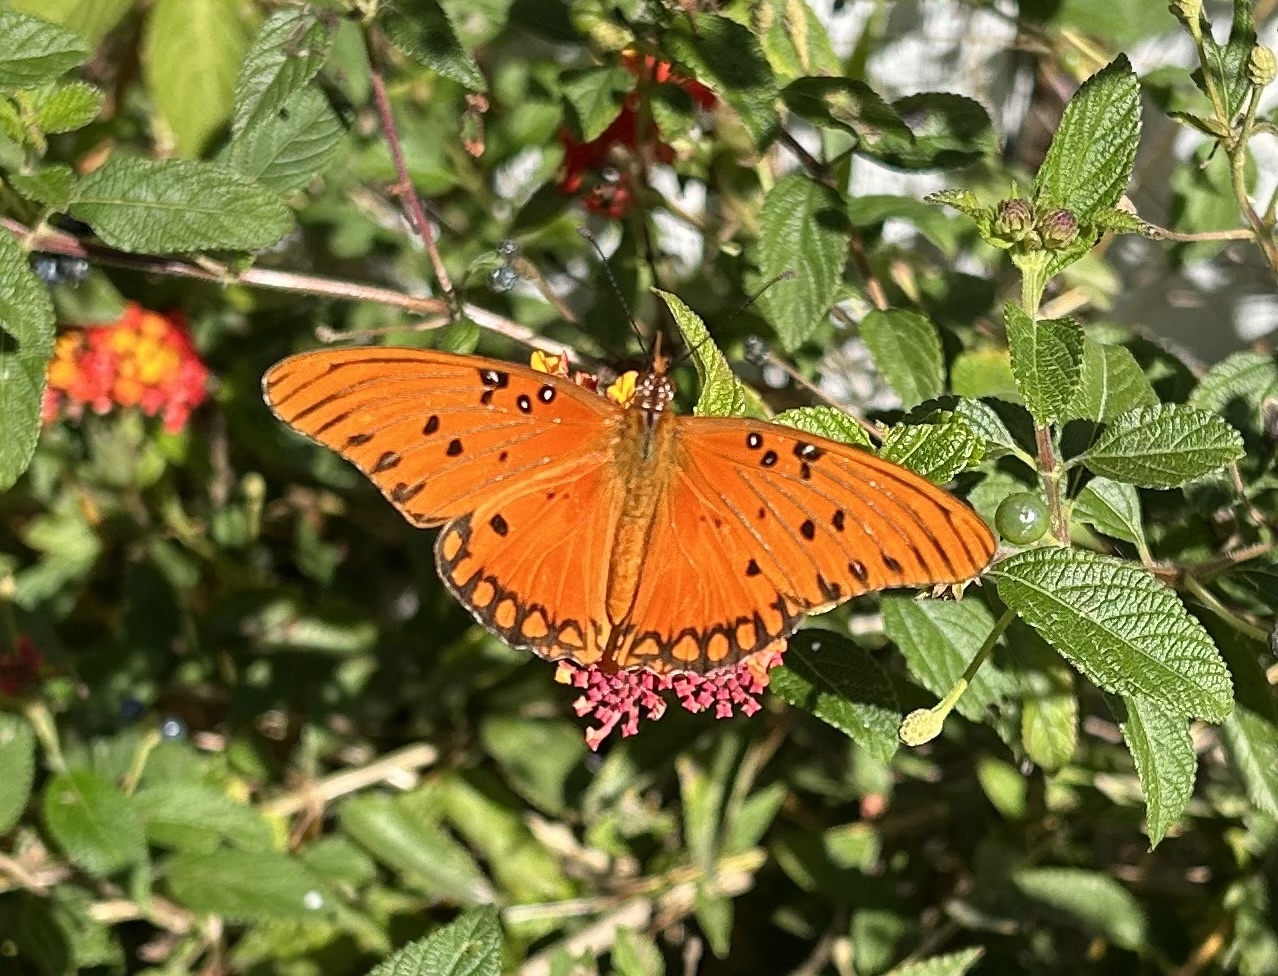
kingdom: Animalia
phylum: Arthropoda
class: Insecta
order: Lepidoptera
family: Nymphalidae
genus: Dione
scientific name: Dione vanillae
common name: Gulf fritillary
